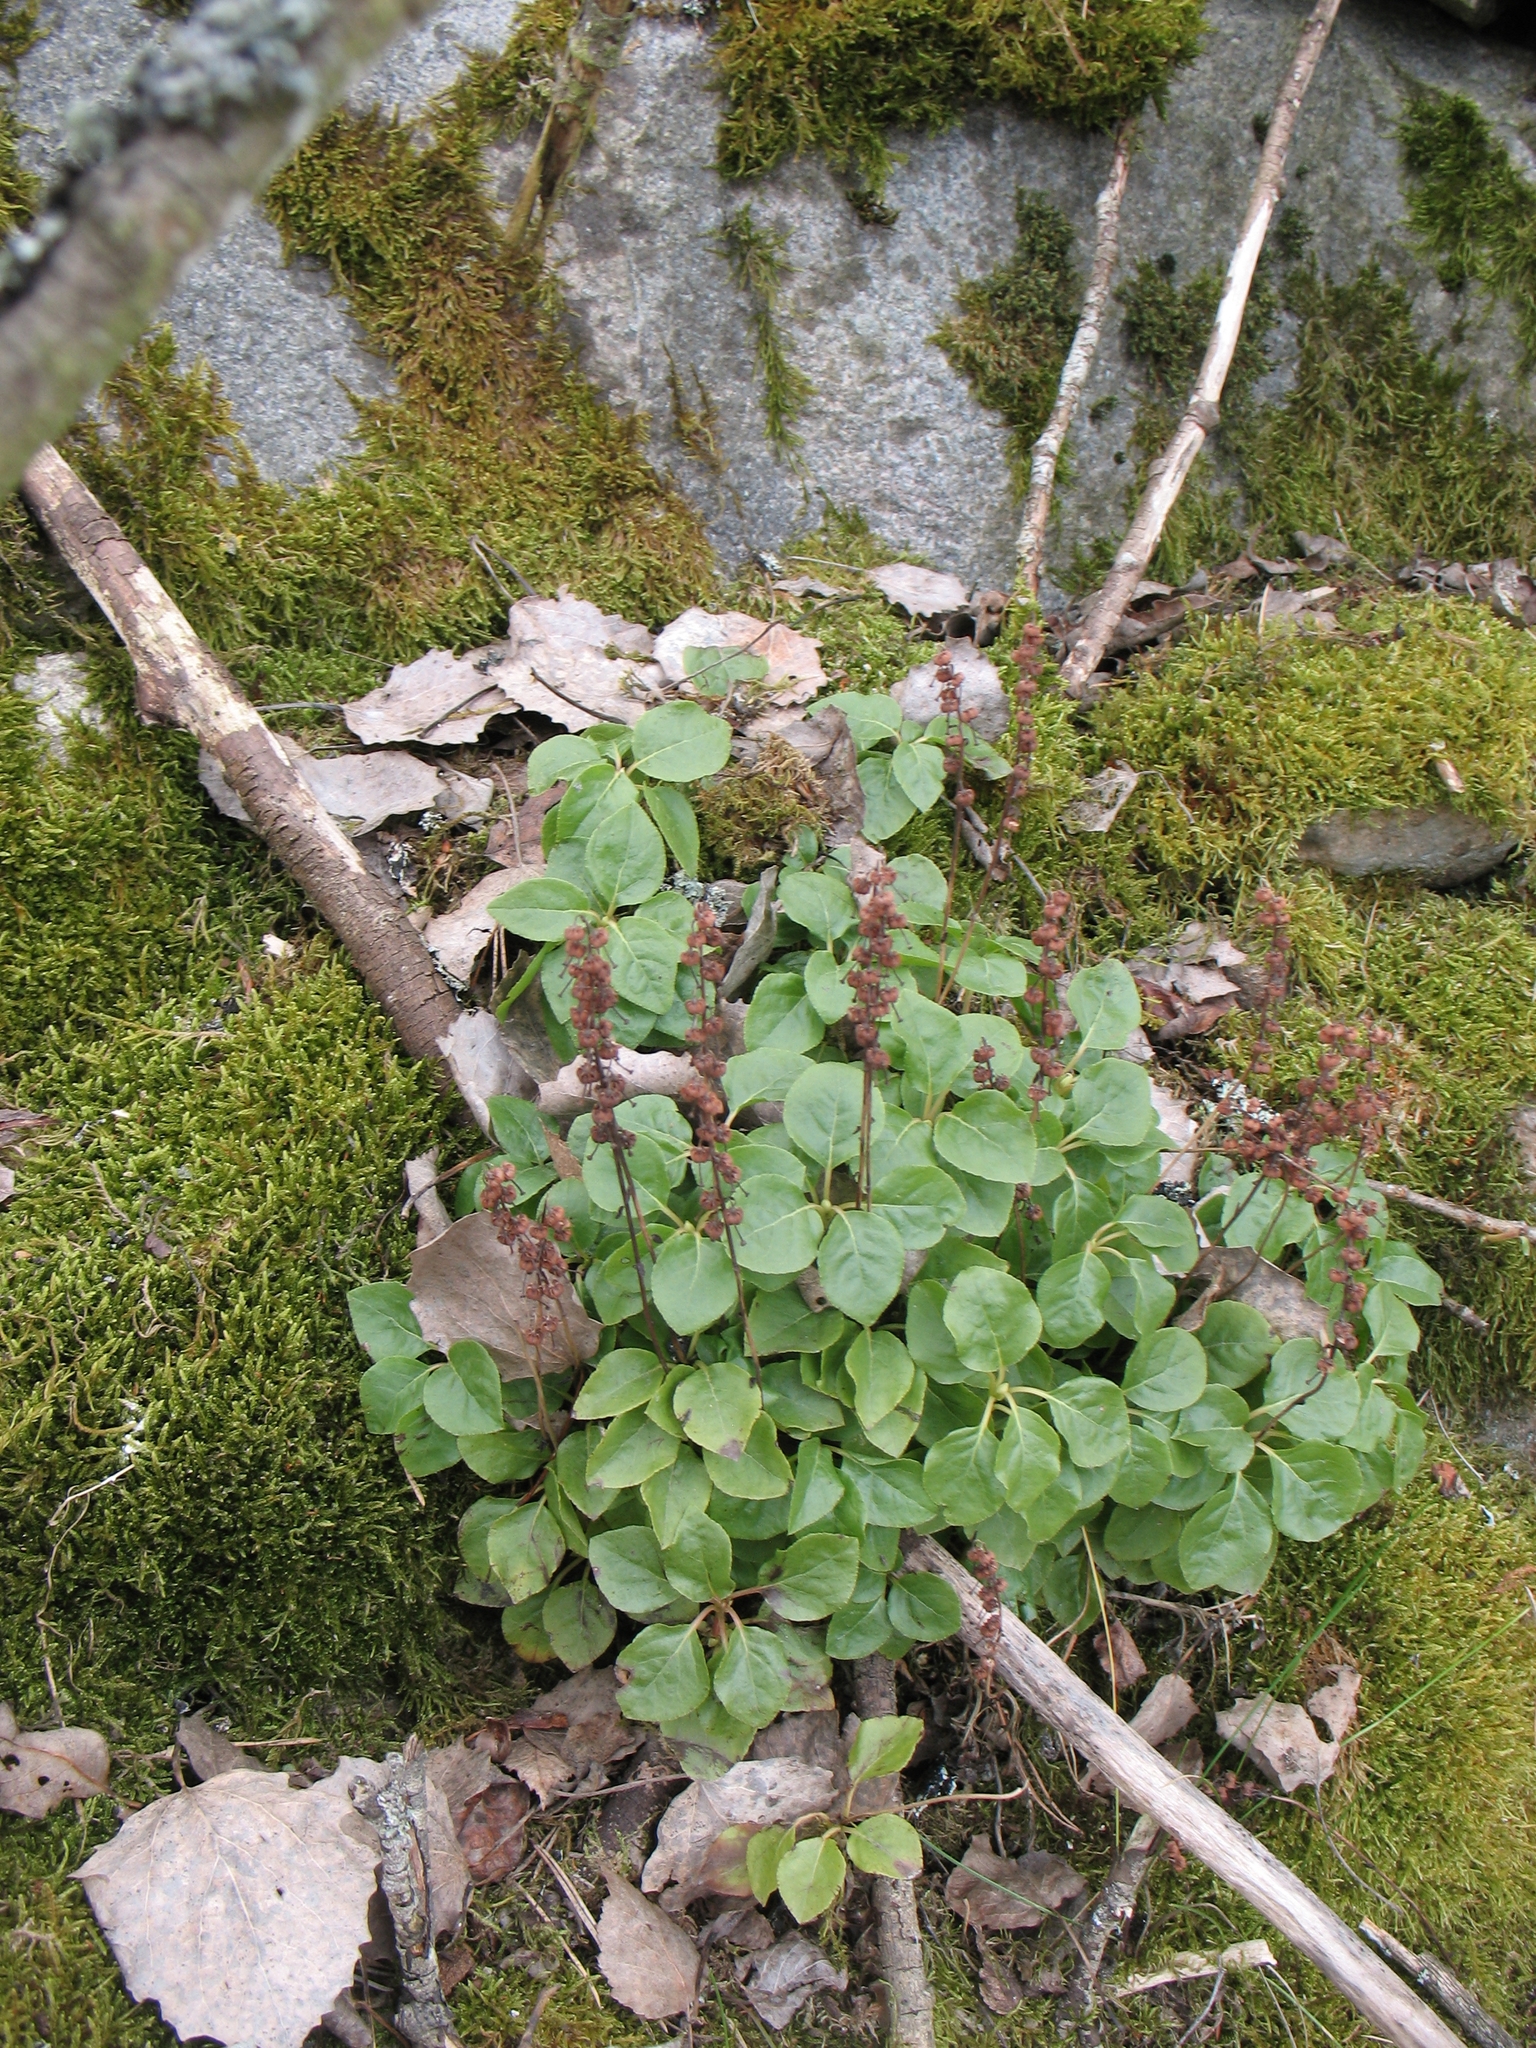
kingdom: Plantae
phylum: Tracheophyta
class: Magnoliopsida
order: Ericales
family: Ericaceae
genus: Orthilia
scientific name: Orthilia secunda
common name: One-sided orthilia
